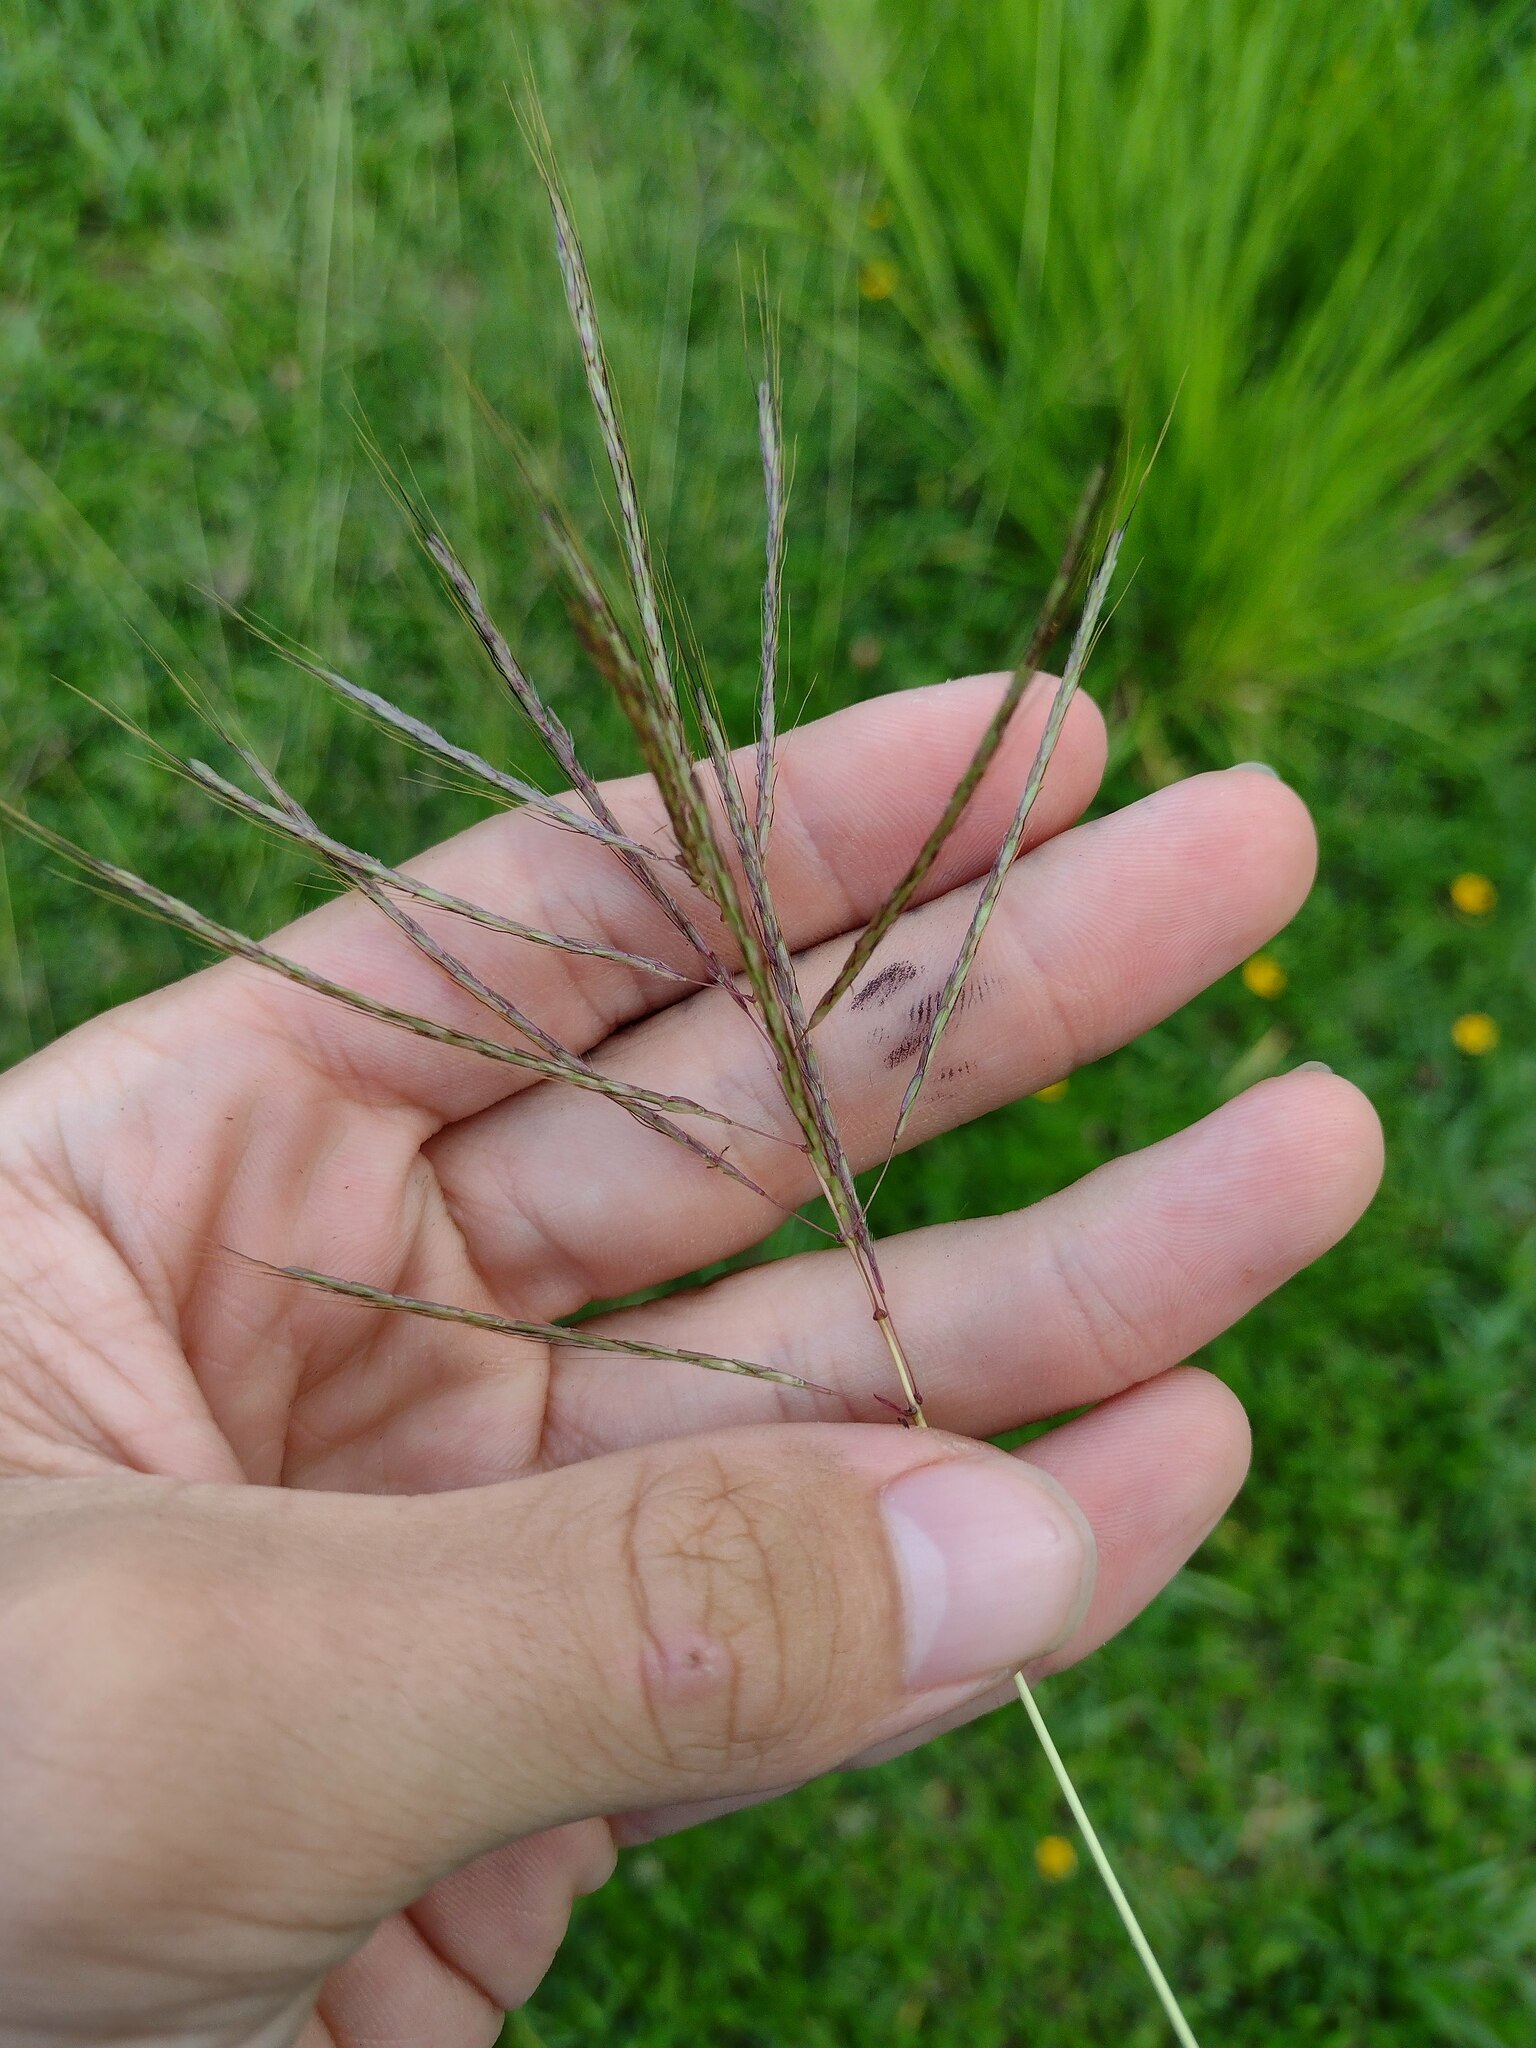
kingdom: Plantae
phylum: Tracheophyta
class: Liliopsida
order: Poales
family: Poaceae
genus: Dichanthium
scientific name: Dichanthium annulatum
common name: Kleberg's bluestem
